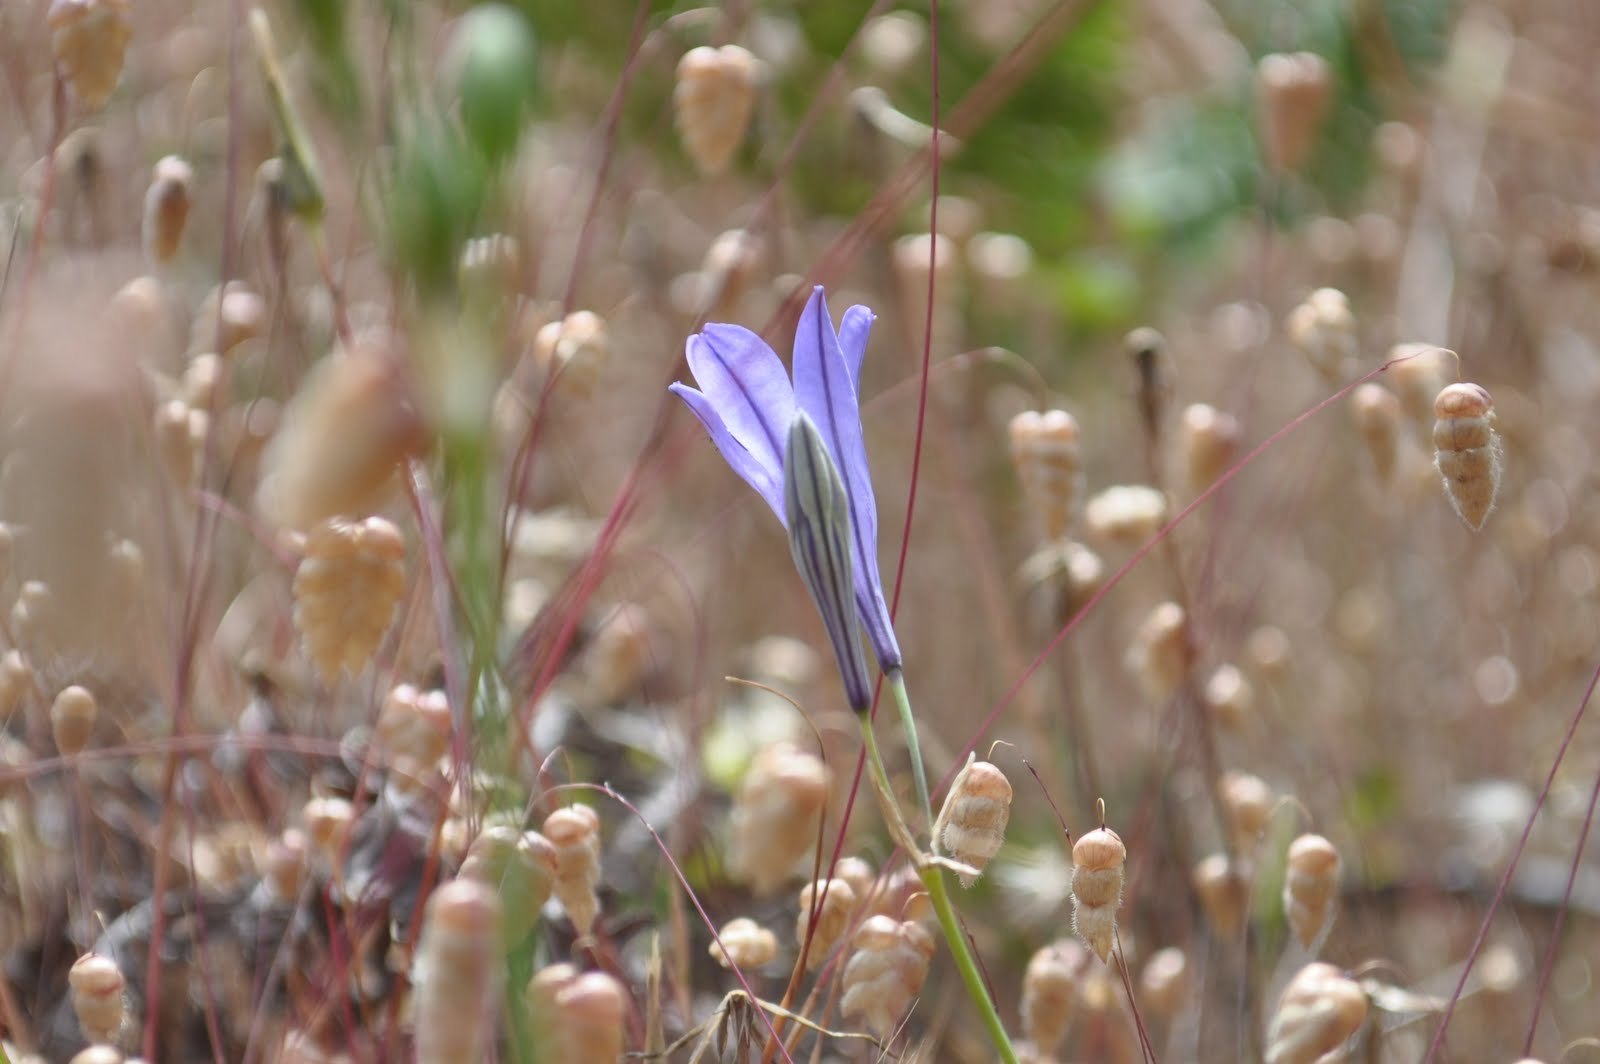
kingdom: Plantae
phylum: Tracheophyta
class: Liliopsida
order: Asparagales
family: Asparagaceae
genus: Triteleia
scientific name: Triteleia laxa
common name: Triplet-lily
